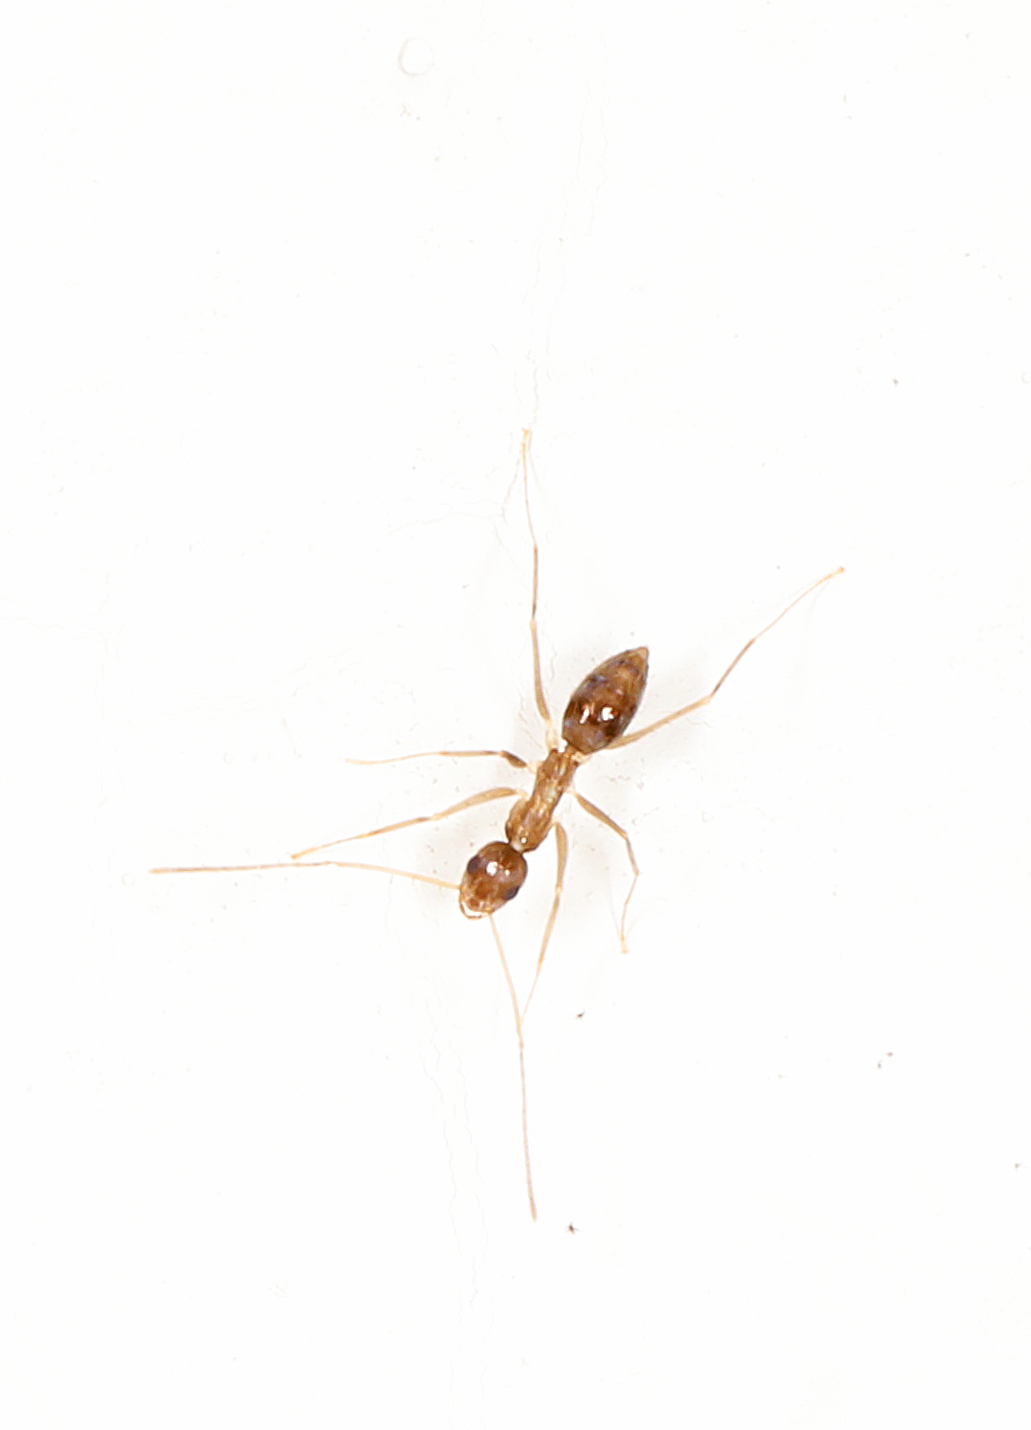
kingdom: Animalia
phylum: Arthropoda
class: Insecta
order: Hymenoptera
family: Formicidae
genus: Paratrechina
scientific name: Paratrechina longicornis
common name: Longhorned crazy ant
